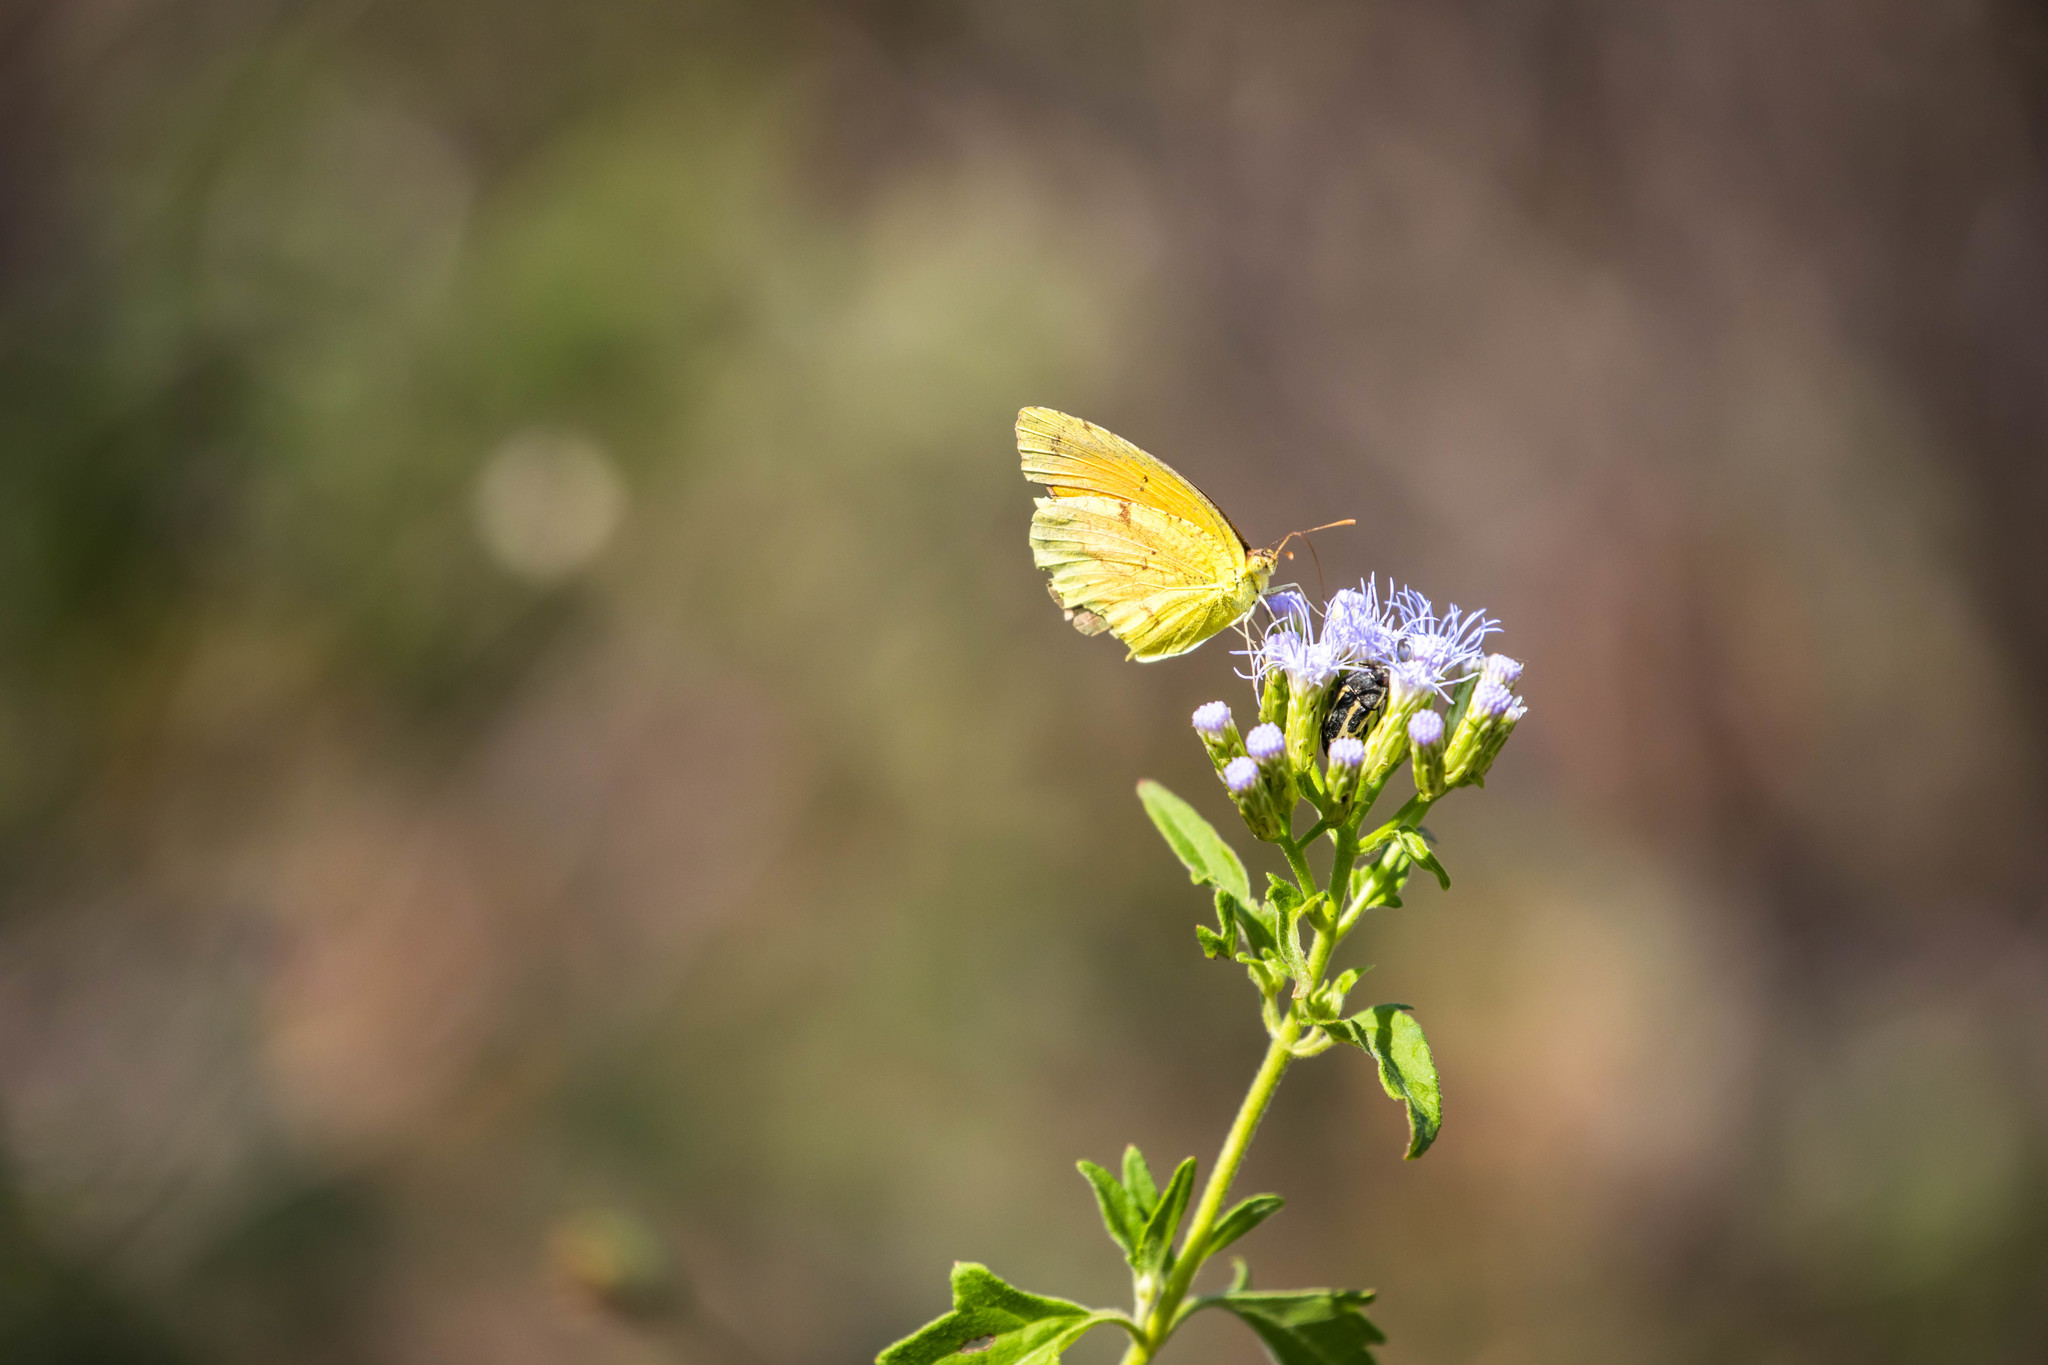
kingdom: Animalia
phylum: Arthropoda
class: Insecta
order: Lepidoptera
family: Pieridae
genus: Abaeis
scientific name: Abaeis nicippe
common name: Sleepy orange
